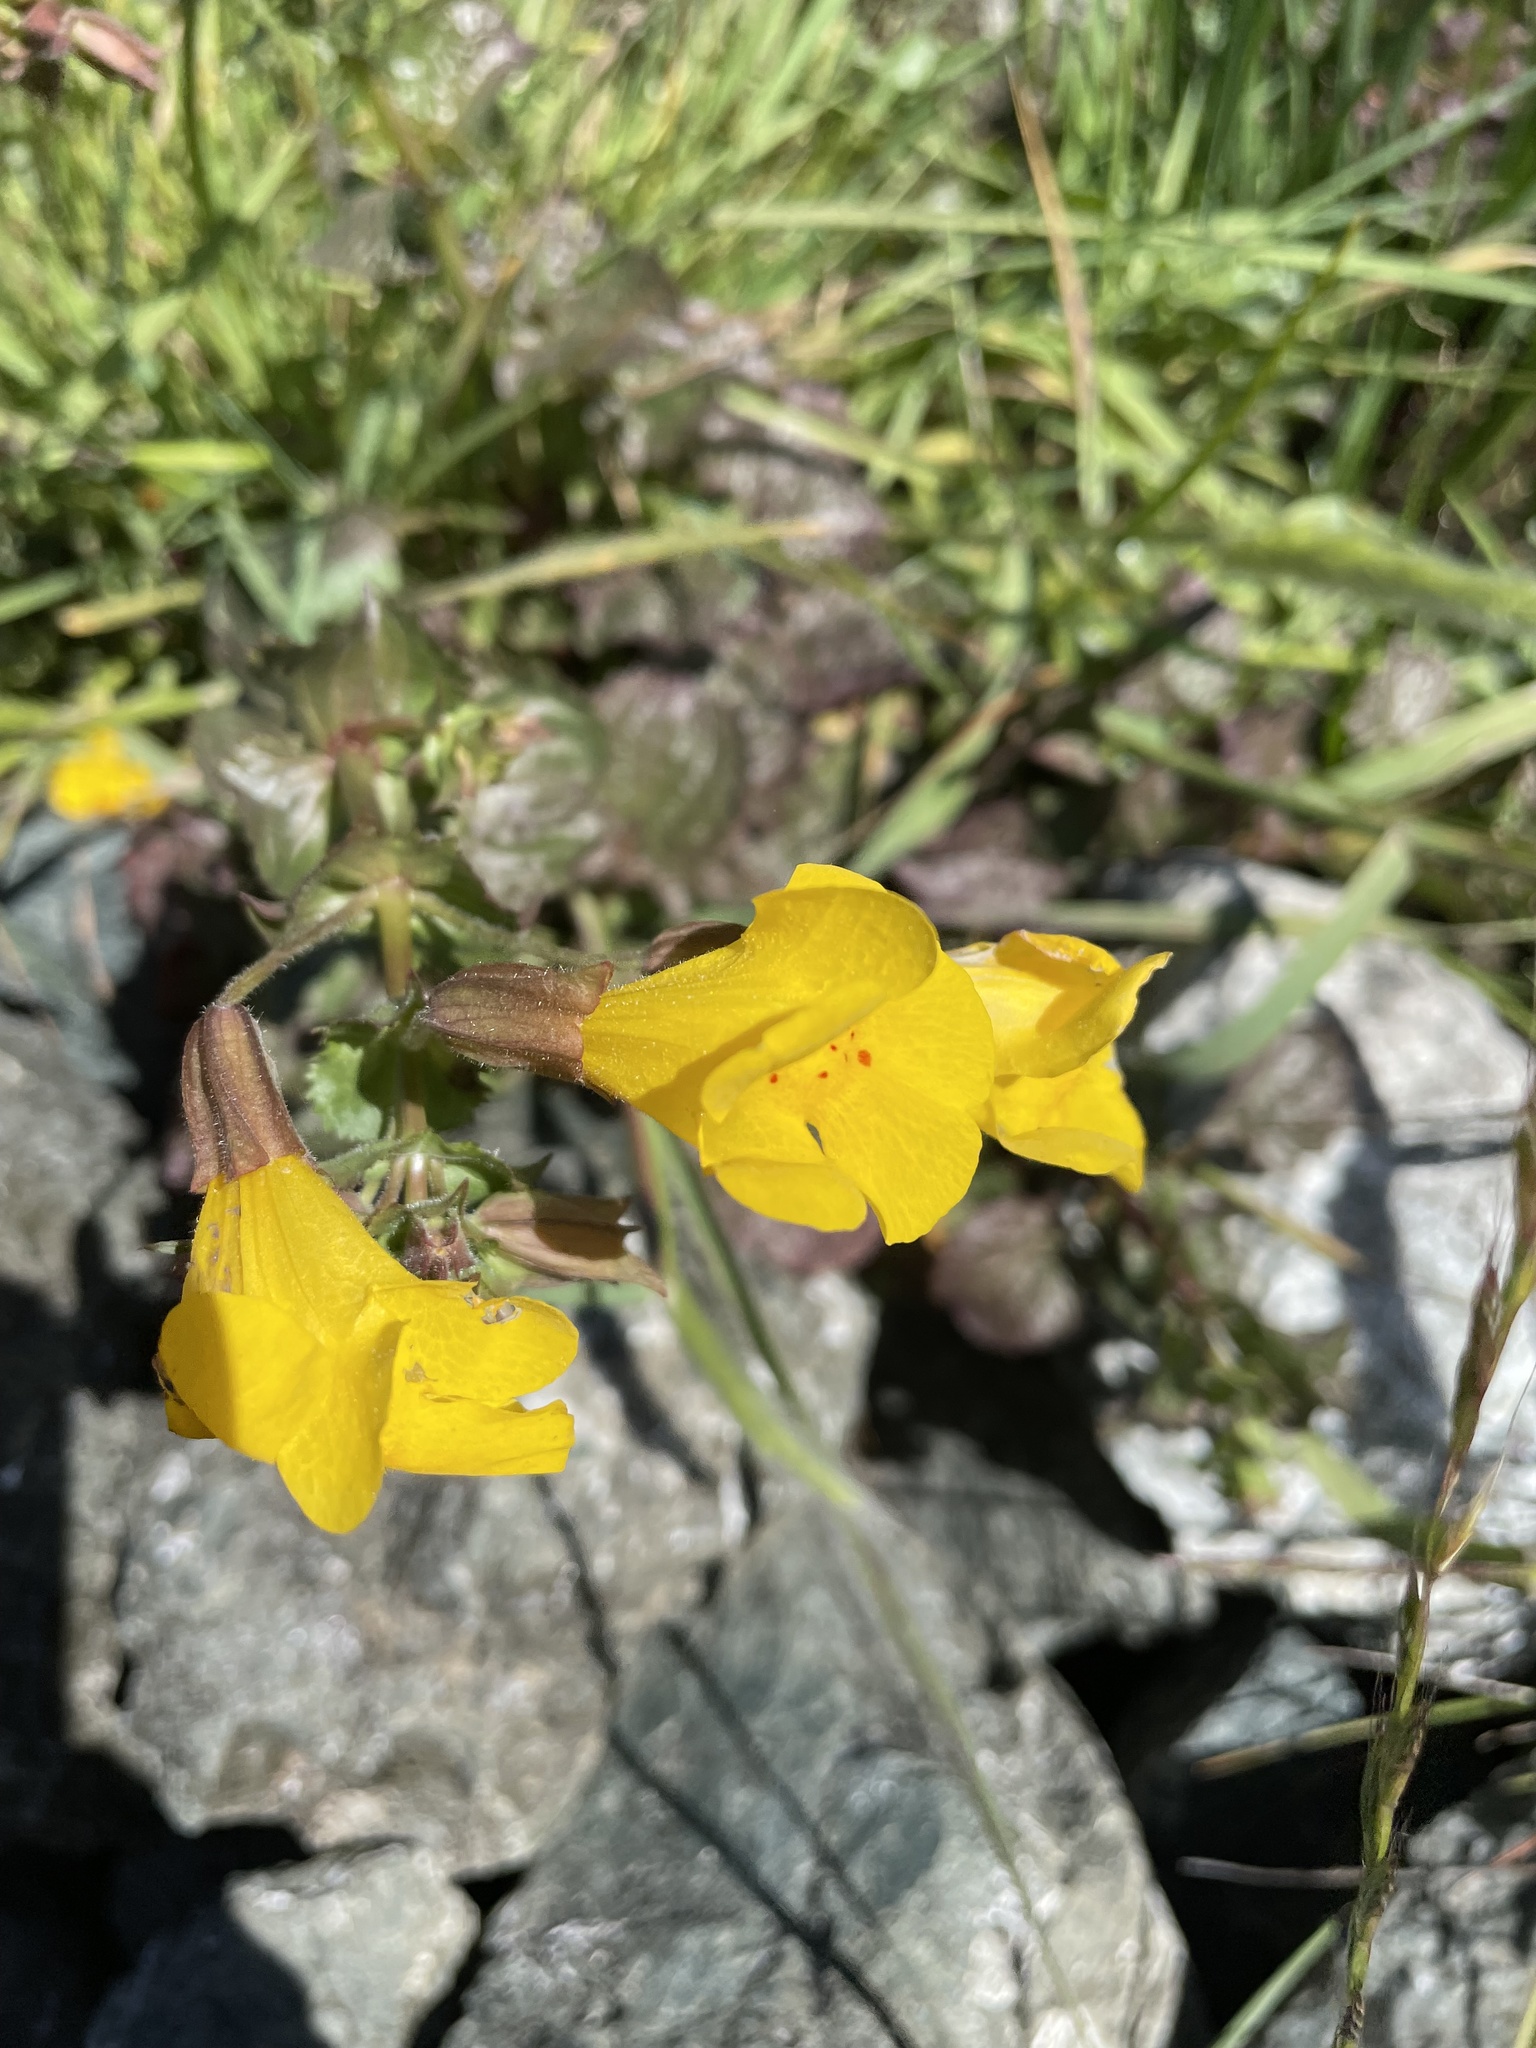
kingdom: Plantae
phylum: Tracheophyta
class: Magnoliopsida
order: Lamiales
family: Phrymaceae
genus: Erythranthe
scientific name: Erythranthe guttata
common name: Monkeyflower
